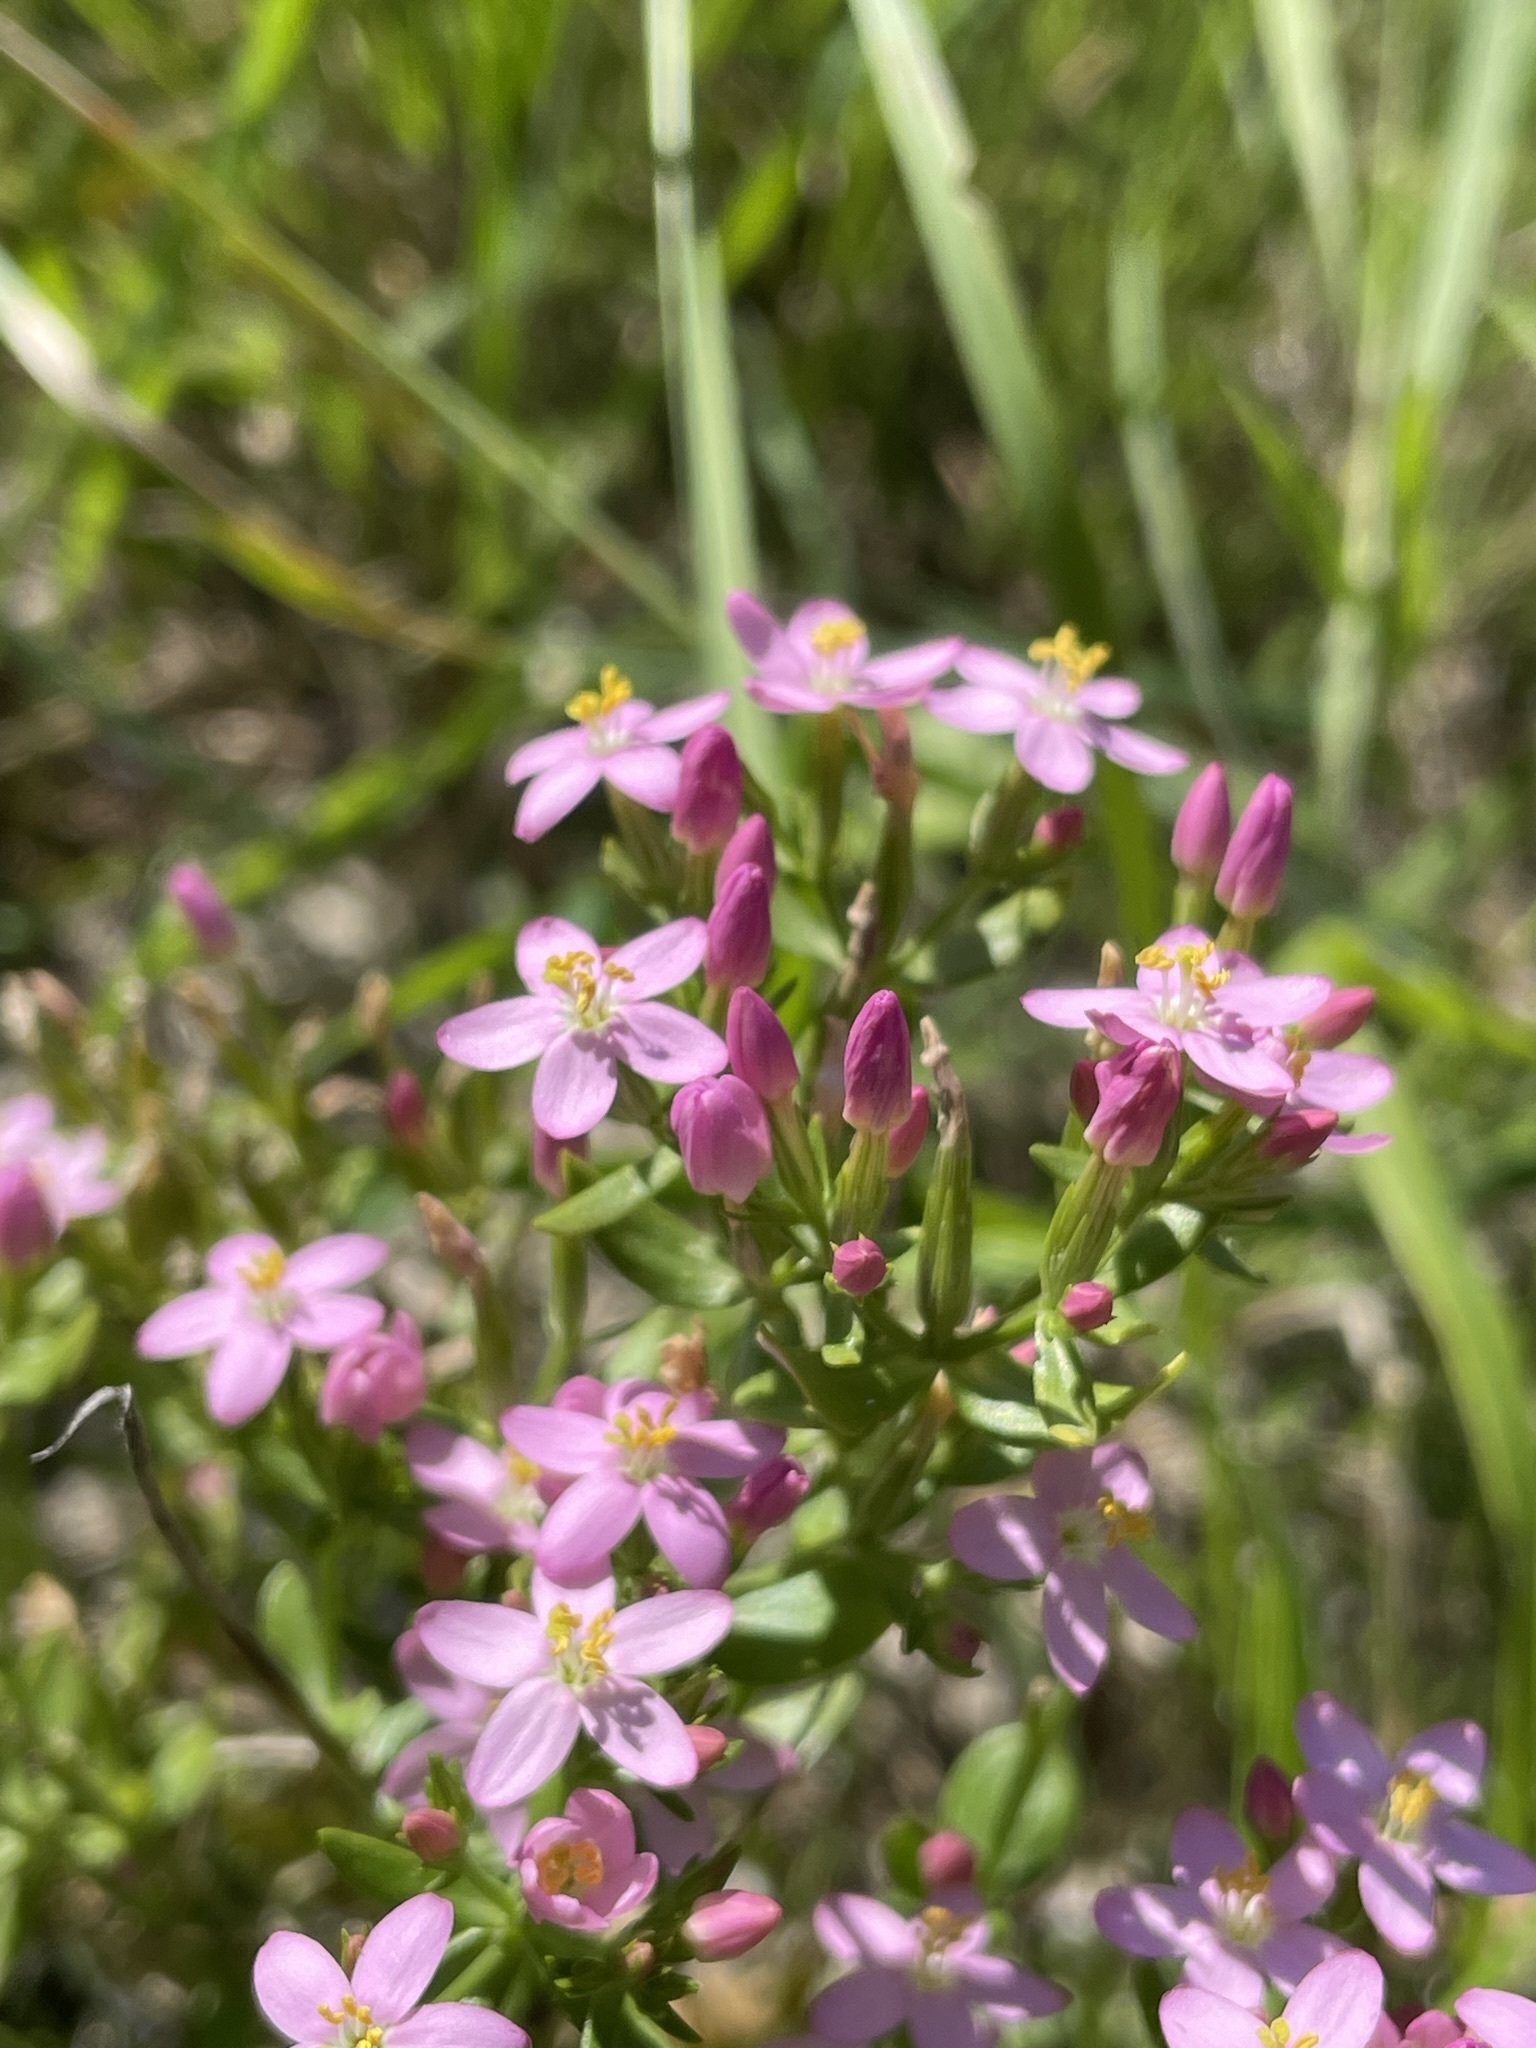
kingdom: Plantae
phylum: Tracheophyta
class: Magnoliopsida
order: Gentianales
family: Gentianaceae
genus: Centaurium
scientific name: Centaurium erythraea
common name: Common centaury
